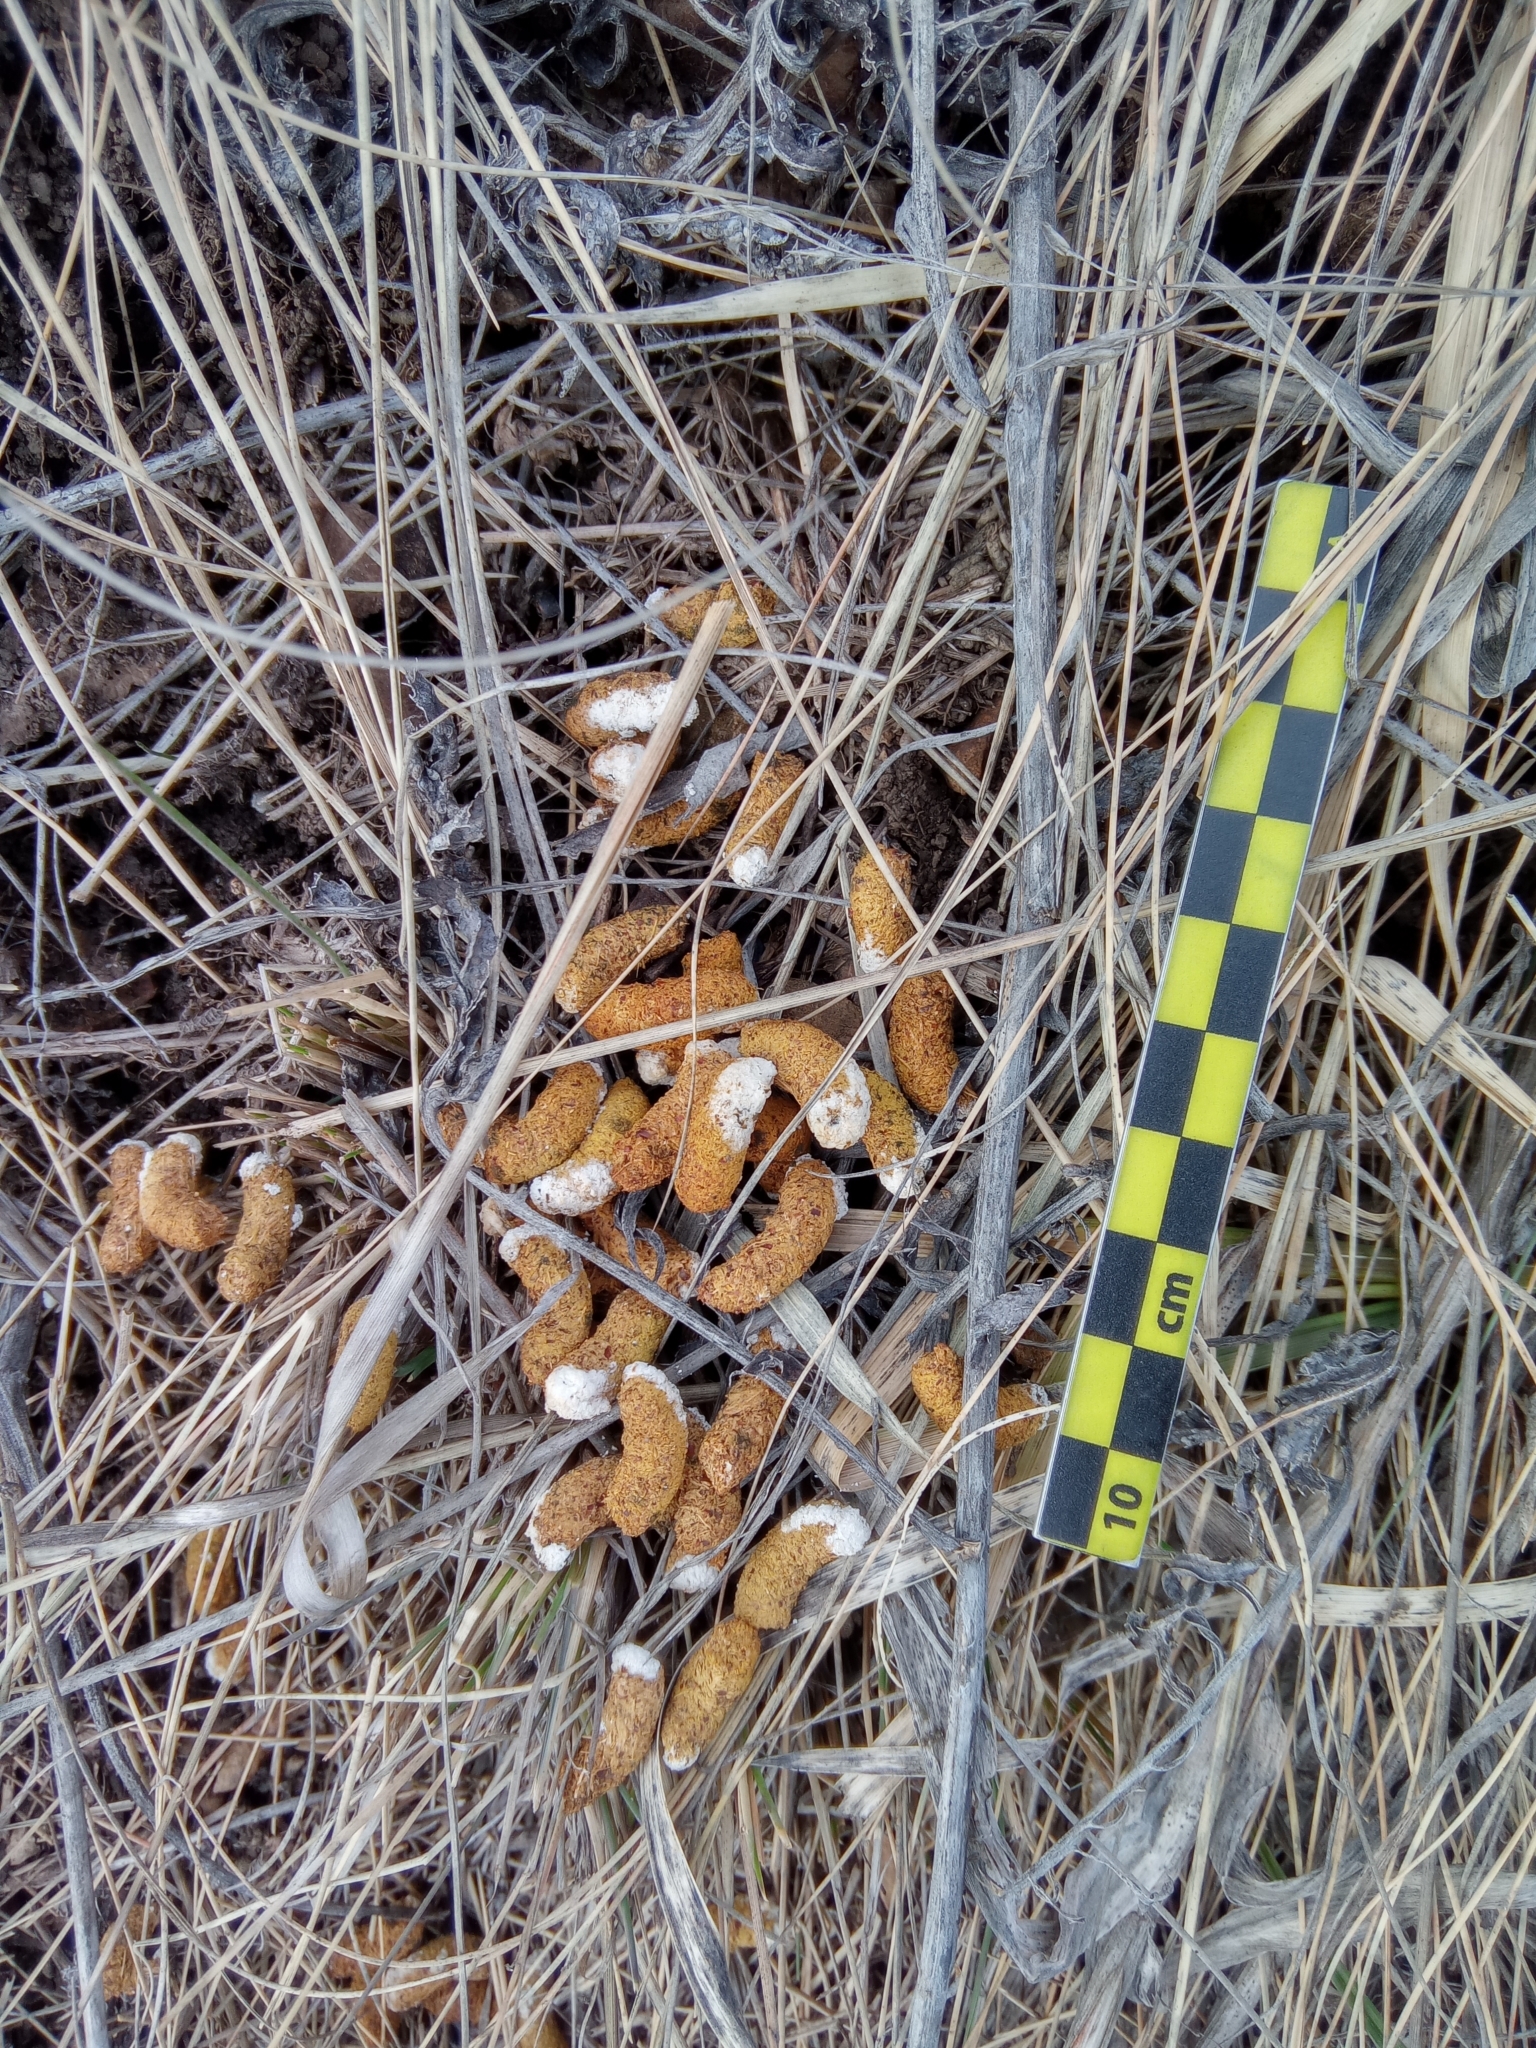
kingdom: Animalia
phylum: Chordata
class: Aves
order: Galliformes
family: Phasianidae
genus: Tetrastes
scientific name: Tetrastes bonasia
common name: Hazel grouse
